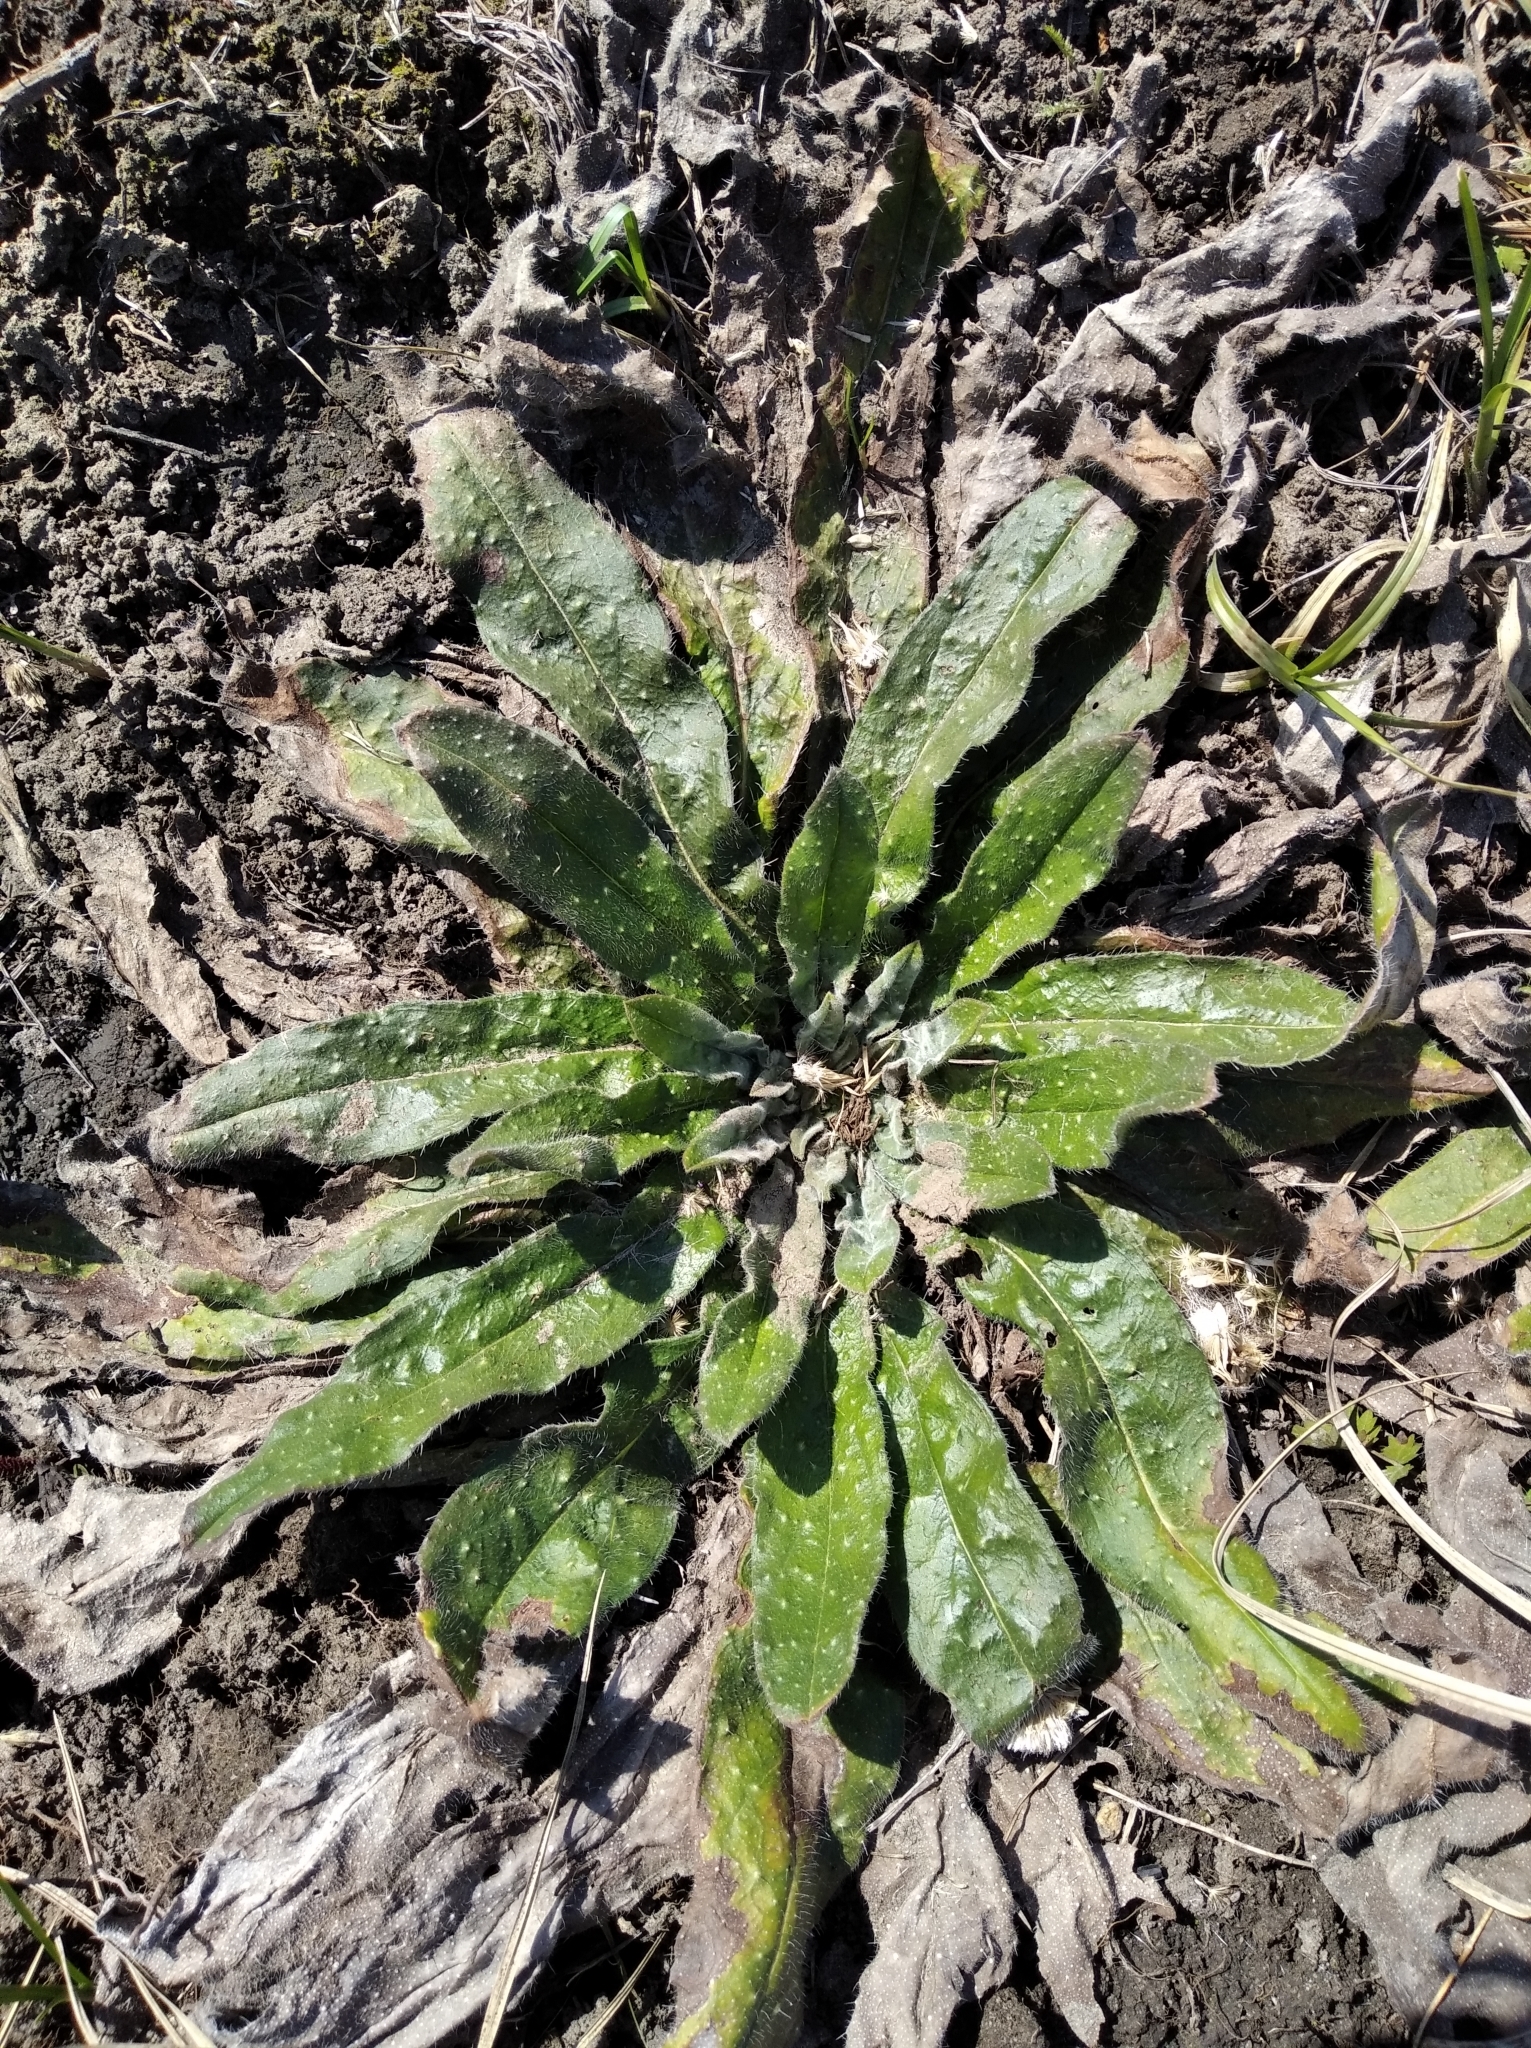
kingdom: Plantae
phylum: Tracheophyta
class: Magnoliopsida
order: Boraginales
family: Boraginaceae
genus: Echium
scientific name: Echium vulgare
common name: Common viper's bugloss
